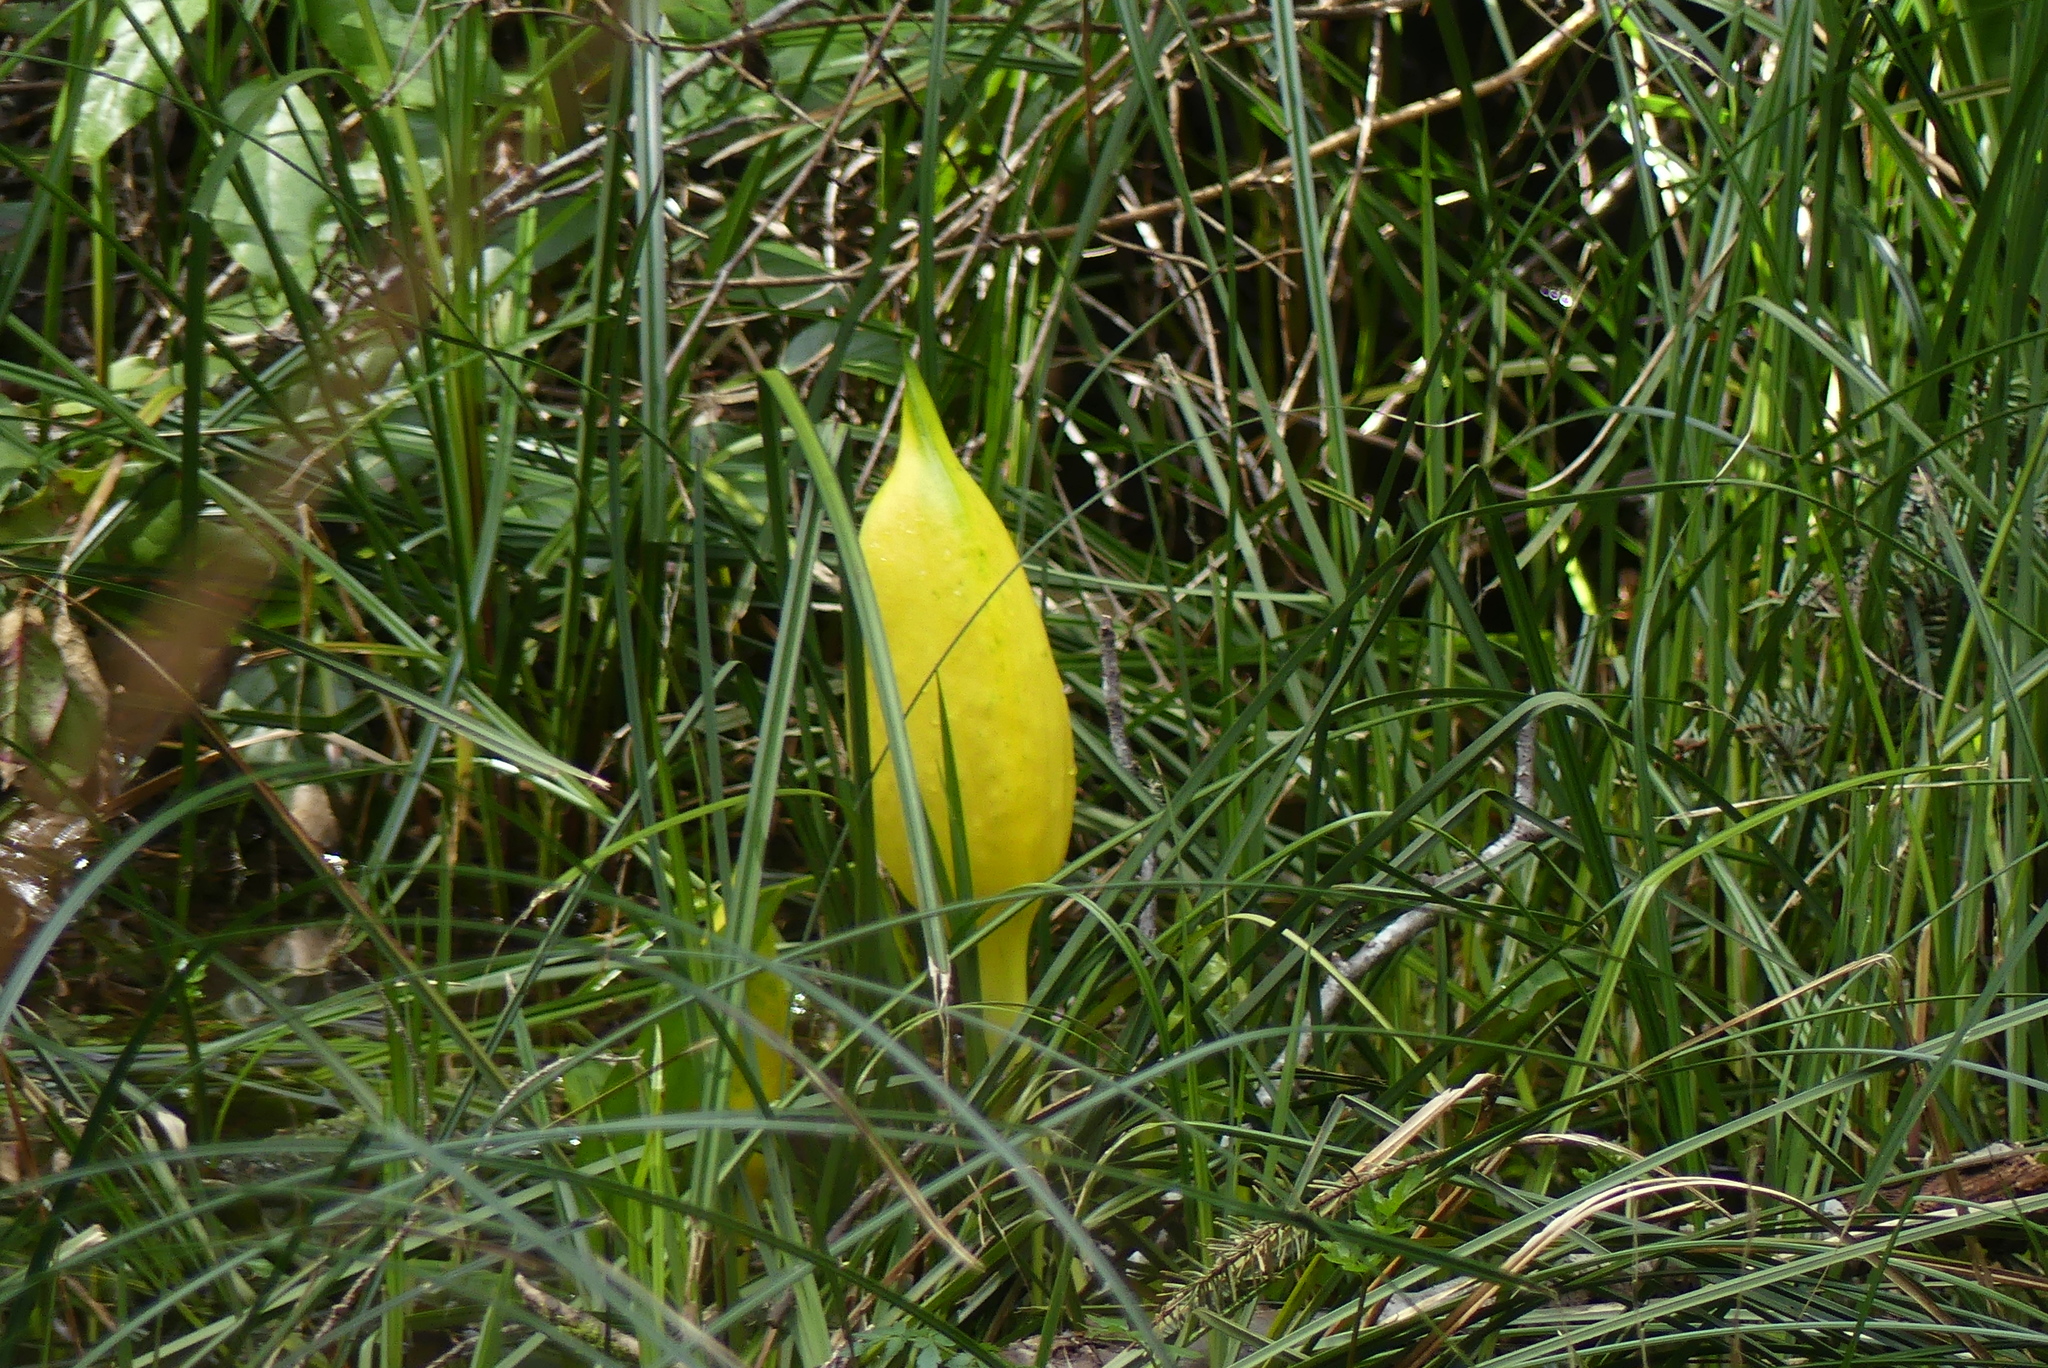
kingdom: Plantae
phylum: Tracheophyta
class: Liliopsida
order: Alismatales
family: Araceae
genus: Lysichiton
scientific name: Lysichiton americanus
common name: American skunk cabbage
